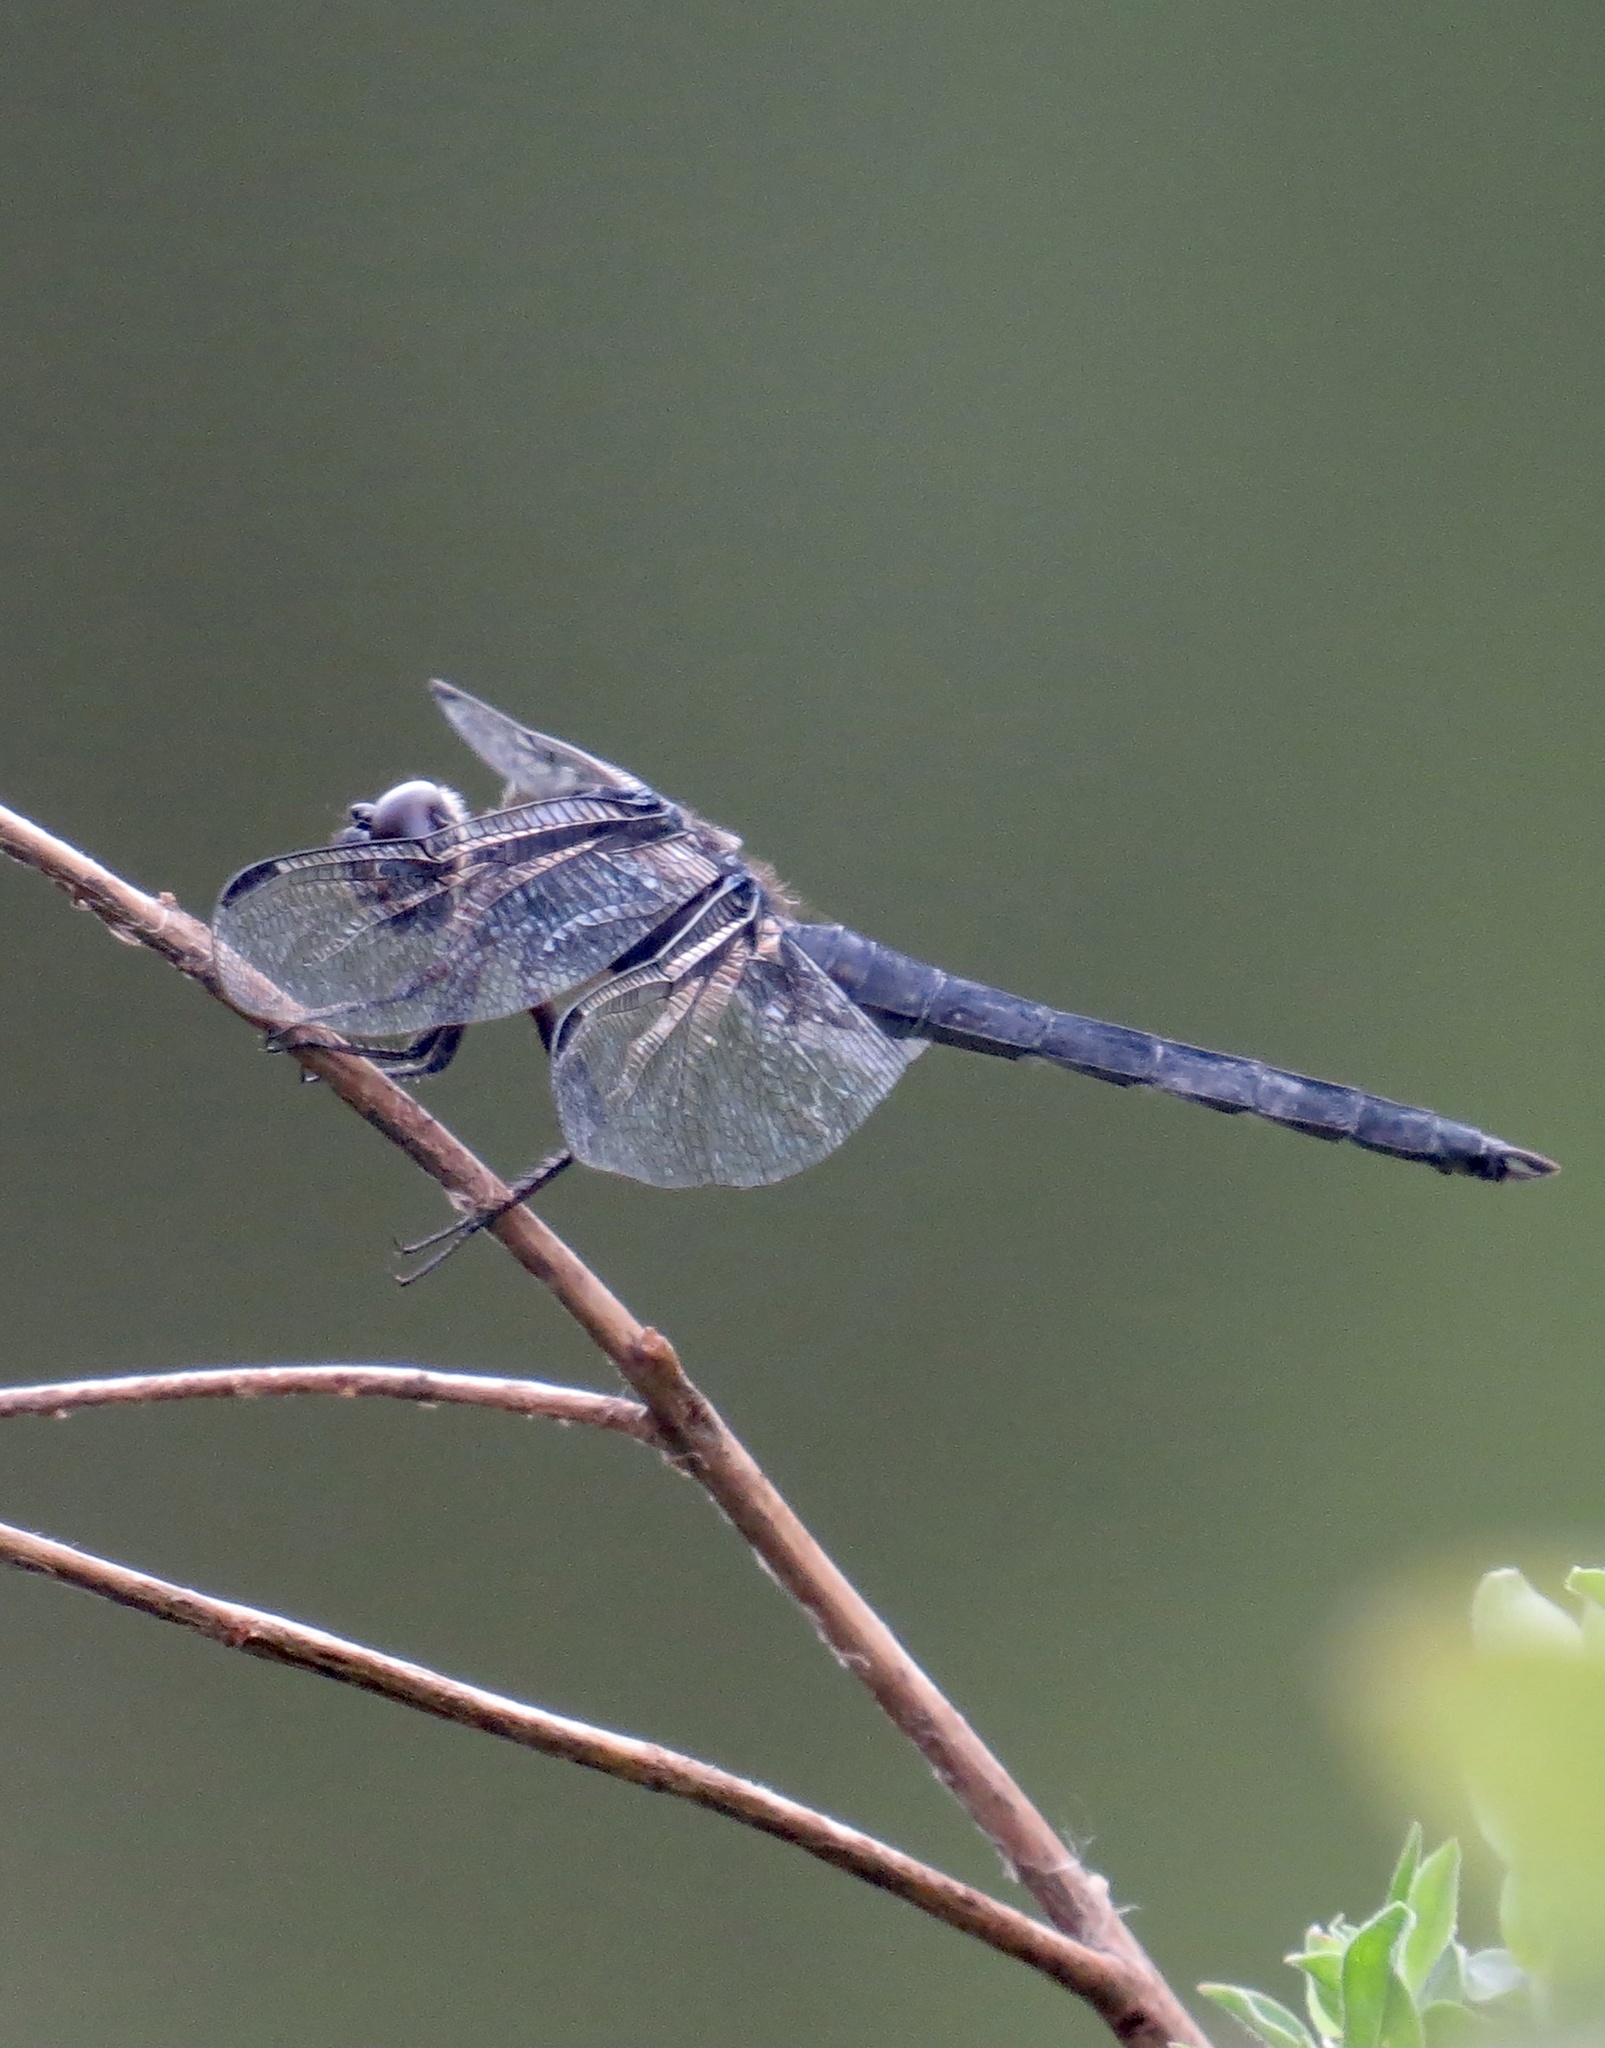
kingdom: Animalia
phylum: Arthropoda
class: Insecta
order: Odonata
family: Libellulidae
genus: Libellula
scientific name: Libellula incesta
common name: Slaty skimmer
